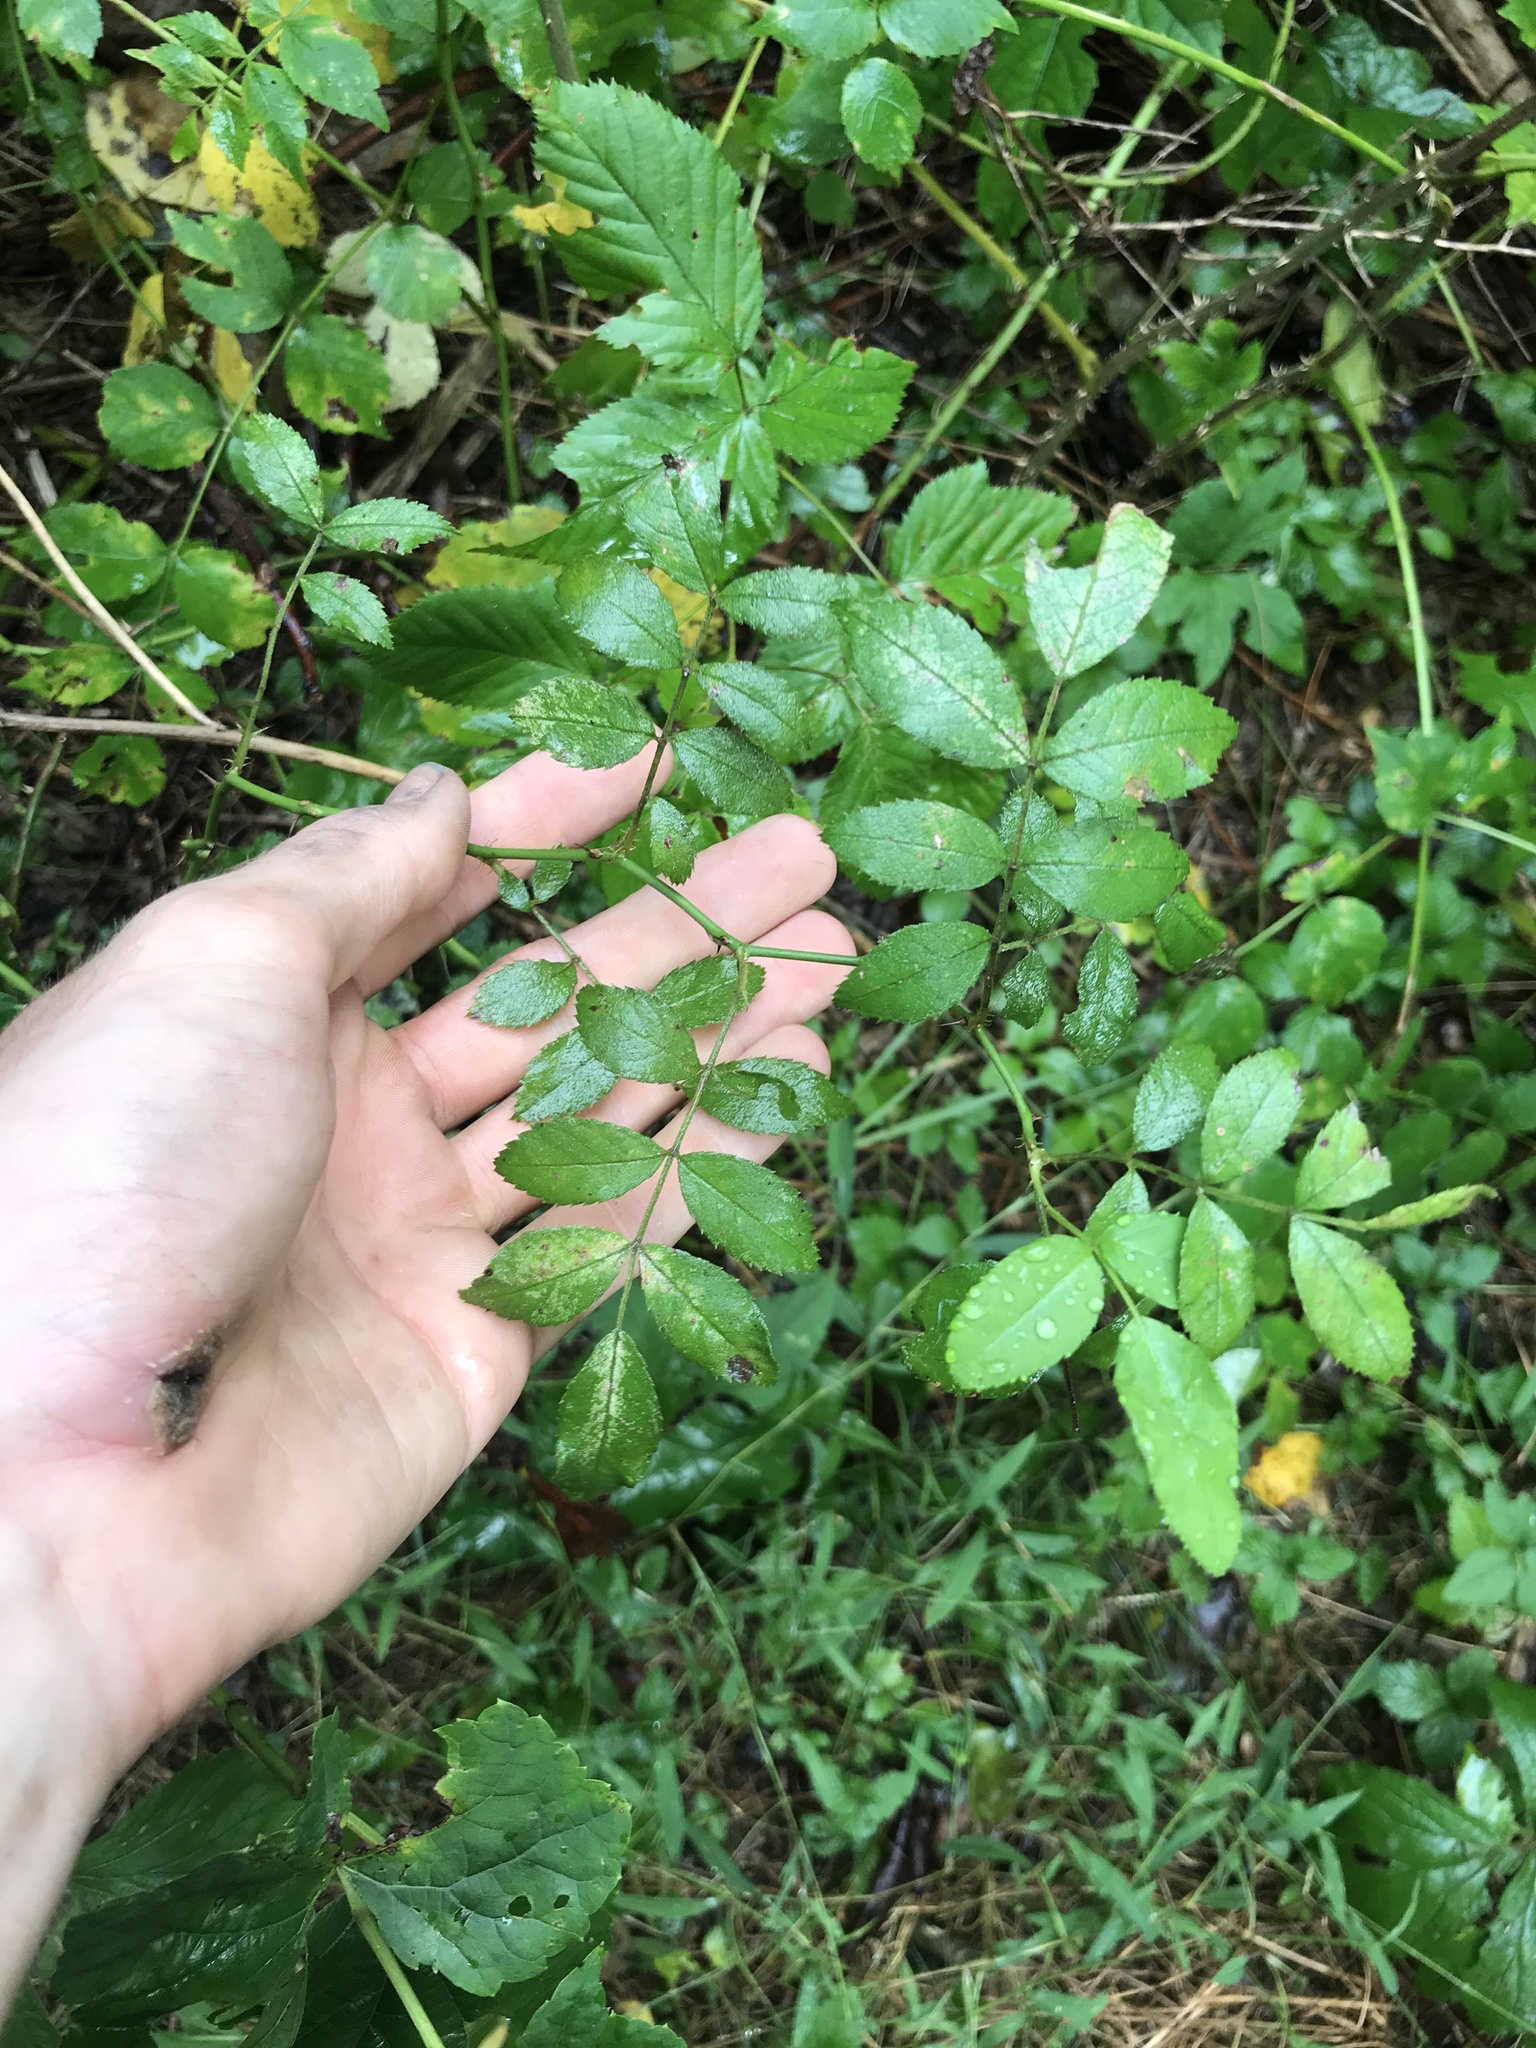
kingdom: Plantae
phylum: Tracheophyta
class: Magnoliopsida
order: Rosales
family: Rosaceae
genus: Rosa
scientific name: Rosa multiflora
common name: Multiflora rose
